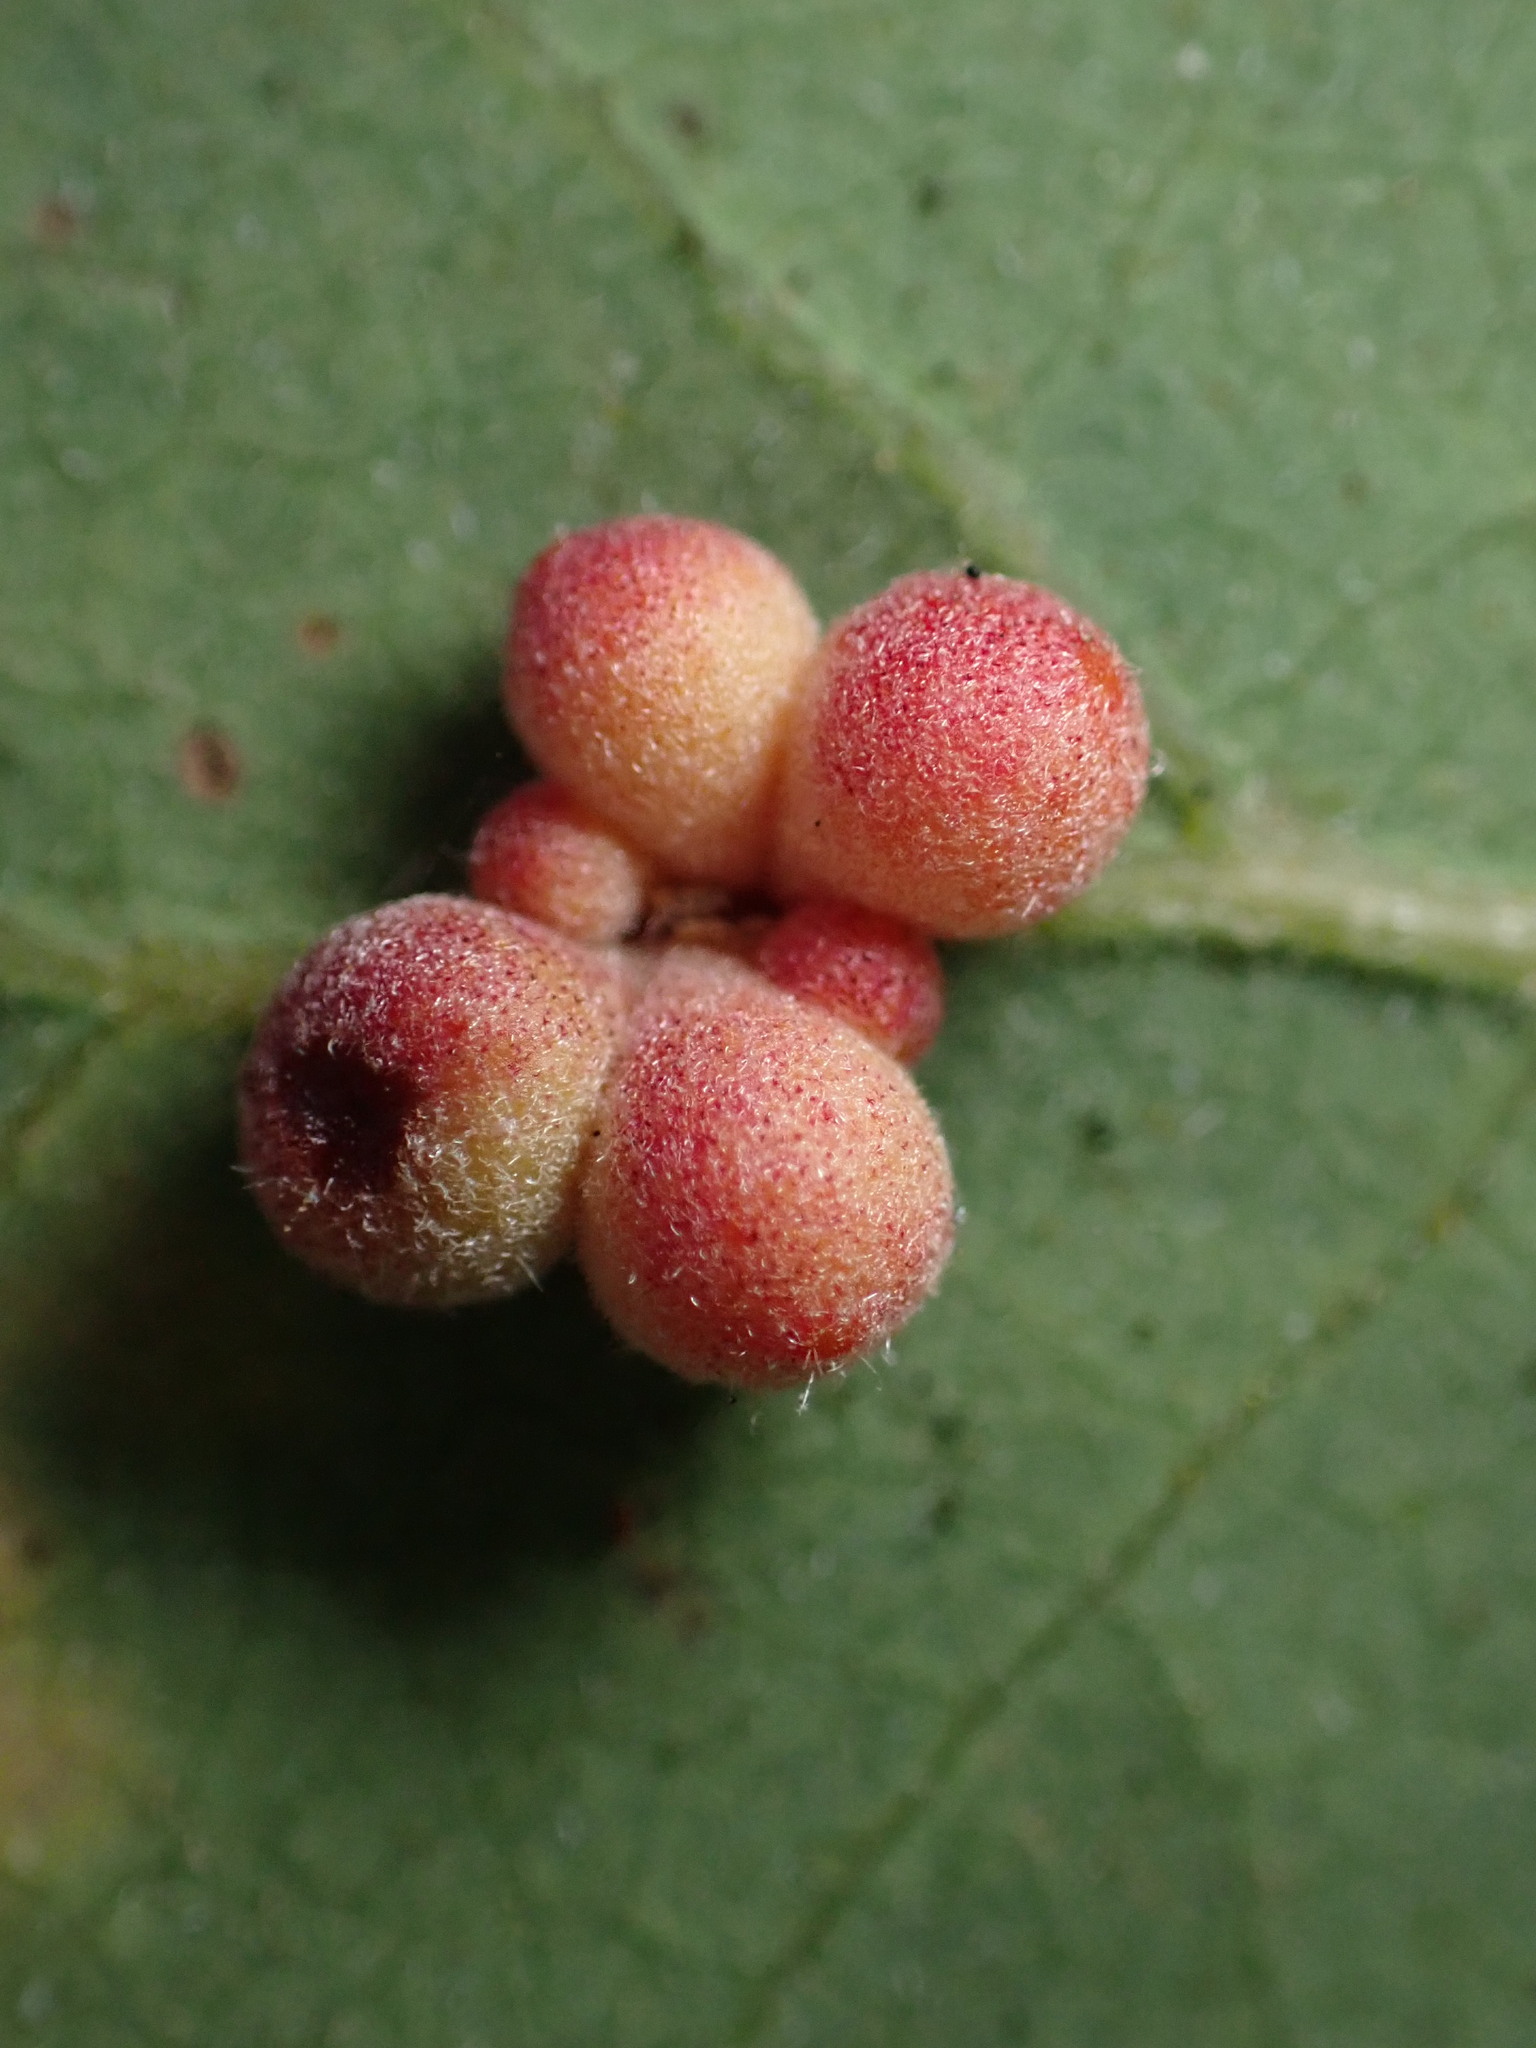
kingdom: Animalia
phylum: Arthropoda
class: Insecta
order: Hymenoptera
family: Cynipidae
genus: Andricus
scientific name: Andricus
